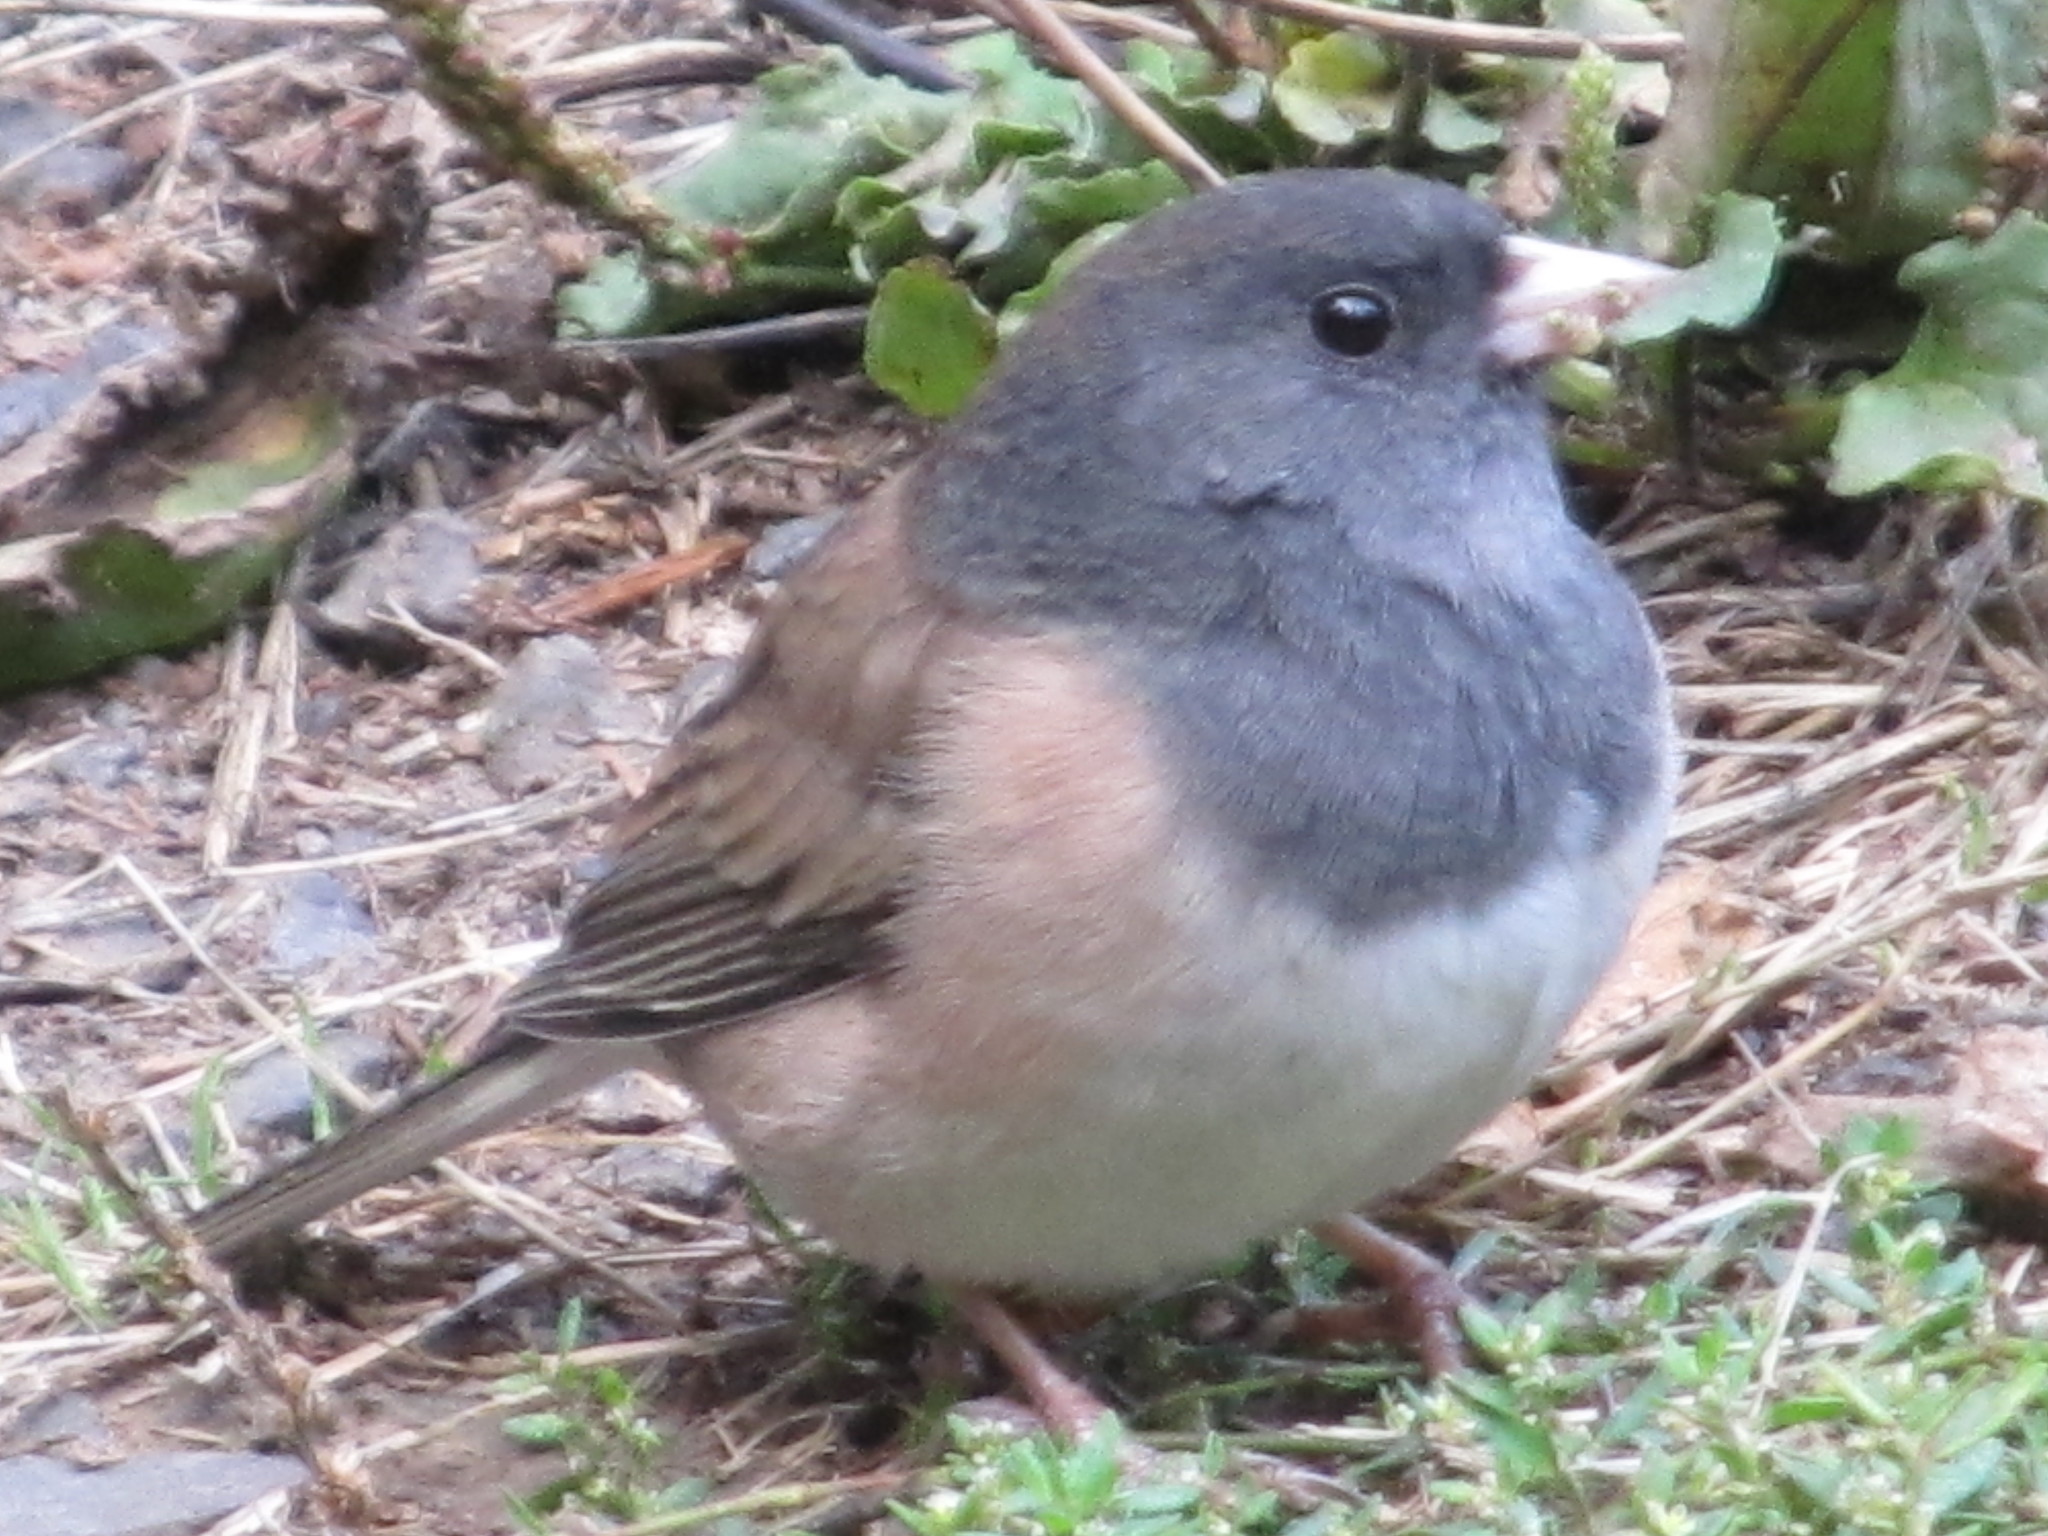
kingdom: Animalia
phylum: Chordata
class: Aves
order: Passeriformes
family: Passerellidae
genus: Junco
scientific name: Junco hyemalis
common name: Dark-eyed junco
